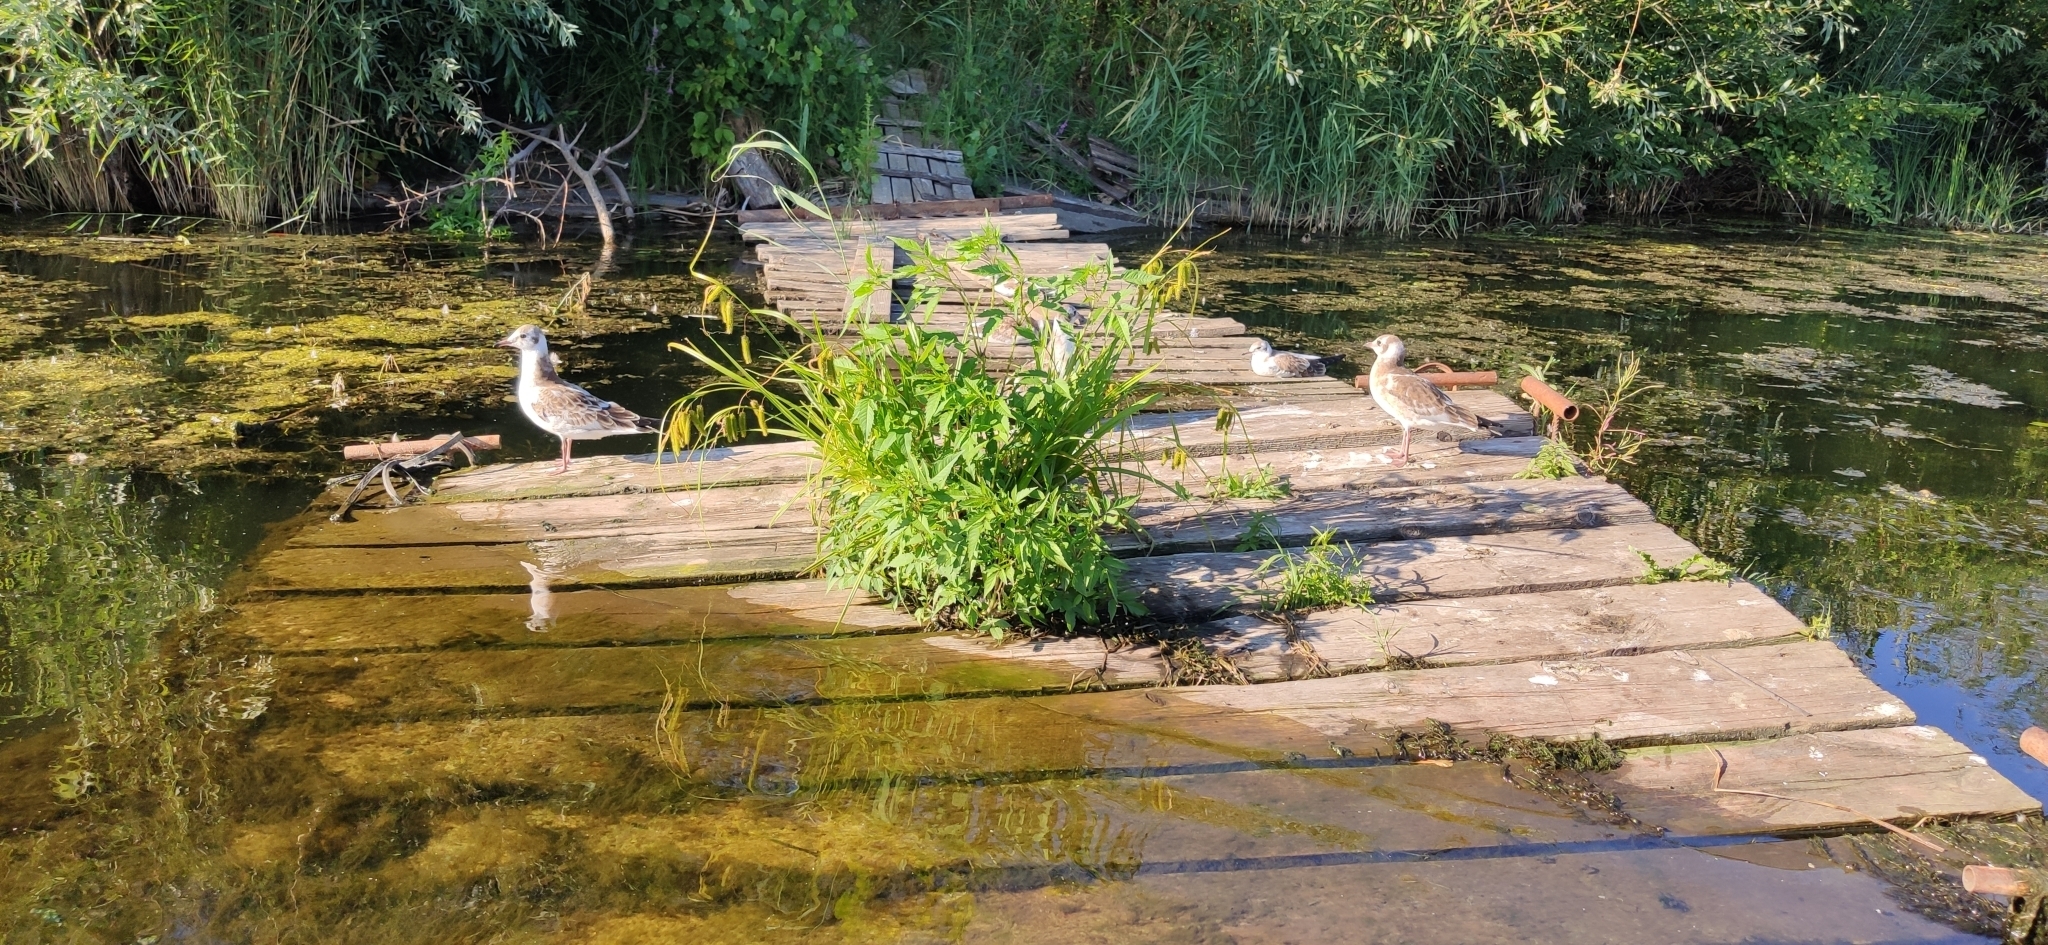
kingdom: Animalia
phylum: Chordata
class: Aves
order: Charadriiformes
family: Laridae
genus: Chroicocephalus
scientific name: Chroicocephalus ridibundus
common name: Black-headed gull
